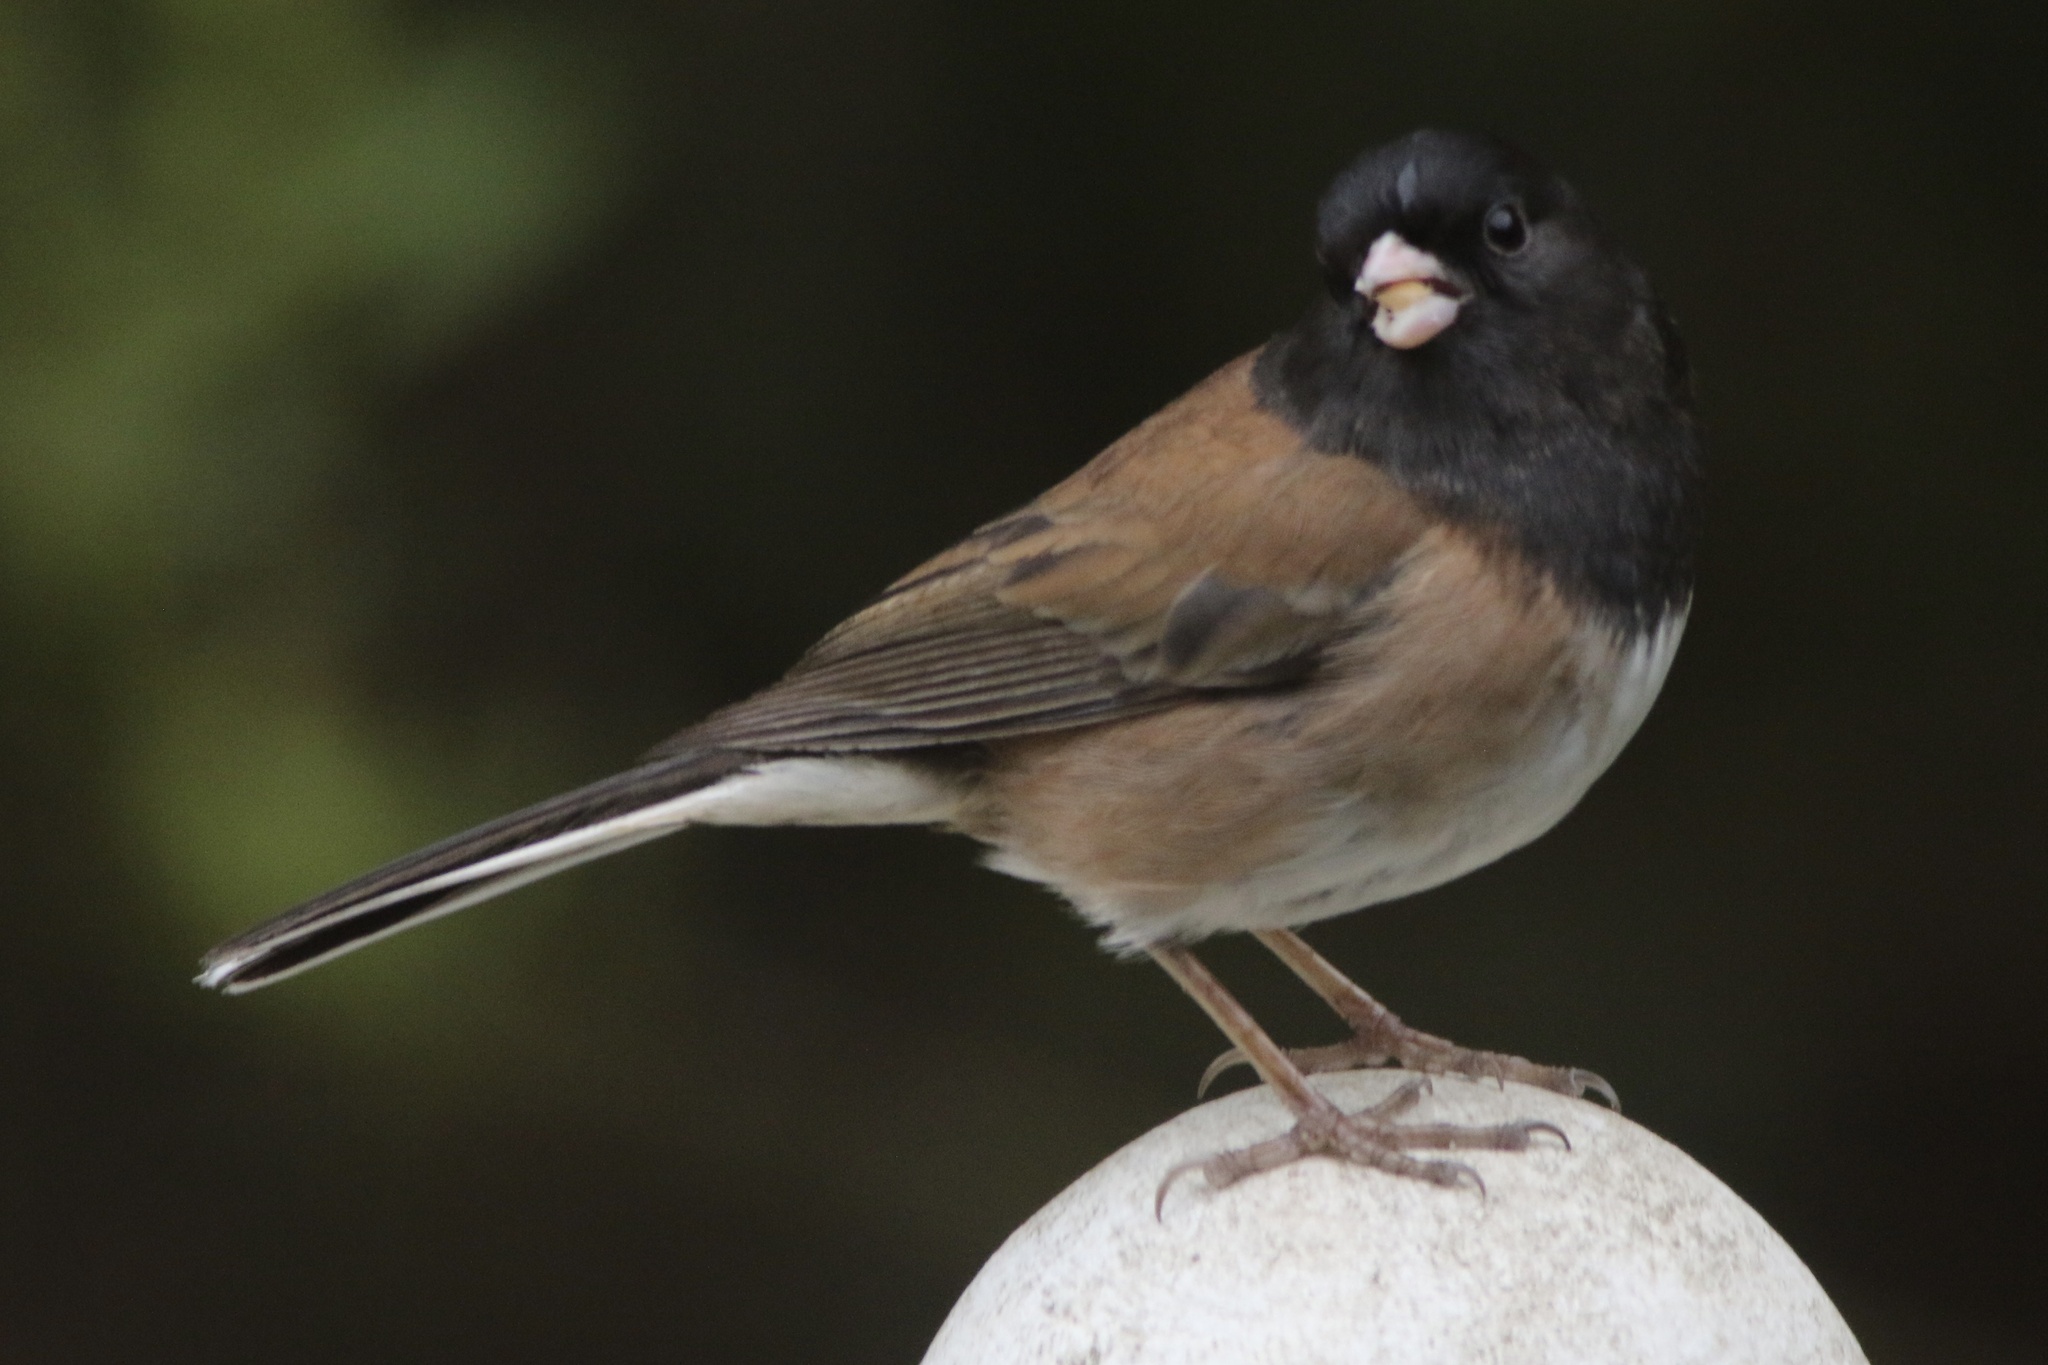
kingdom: Animalia
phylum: Chordata
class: Aves
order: Passeriformes
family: Passerellidae
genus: Junco
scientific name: Junco hyemalis
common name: Dark-eyed junco
